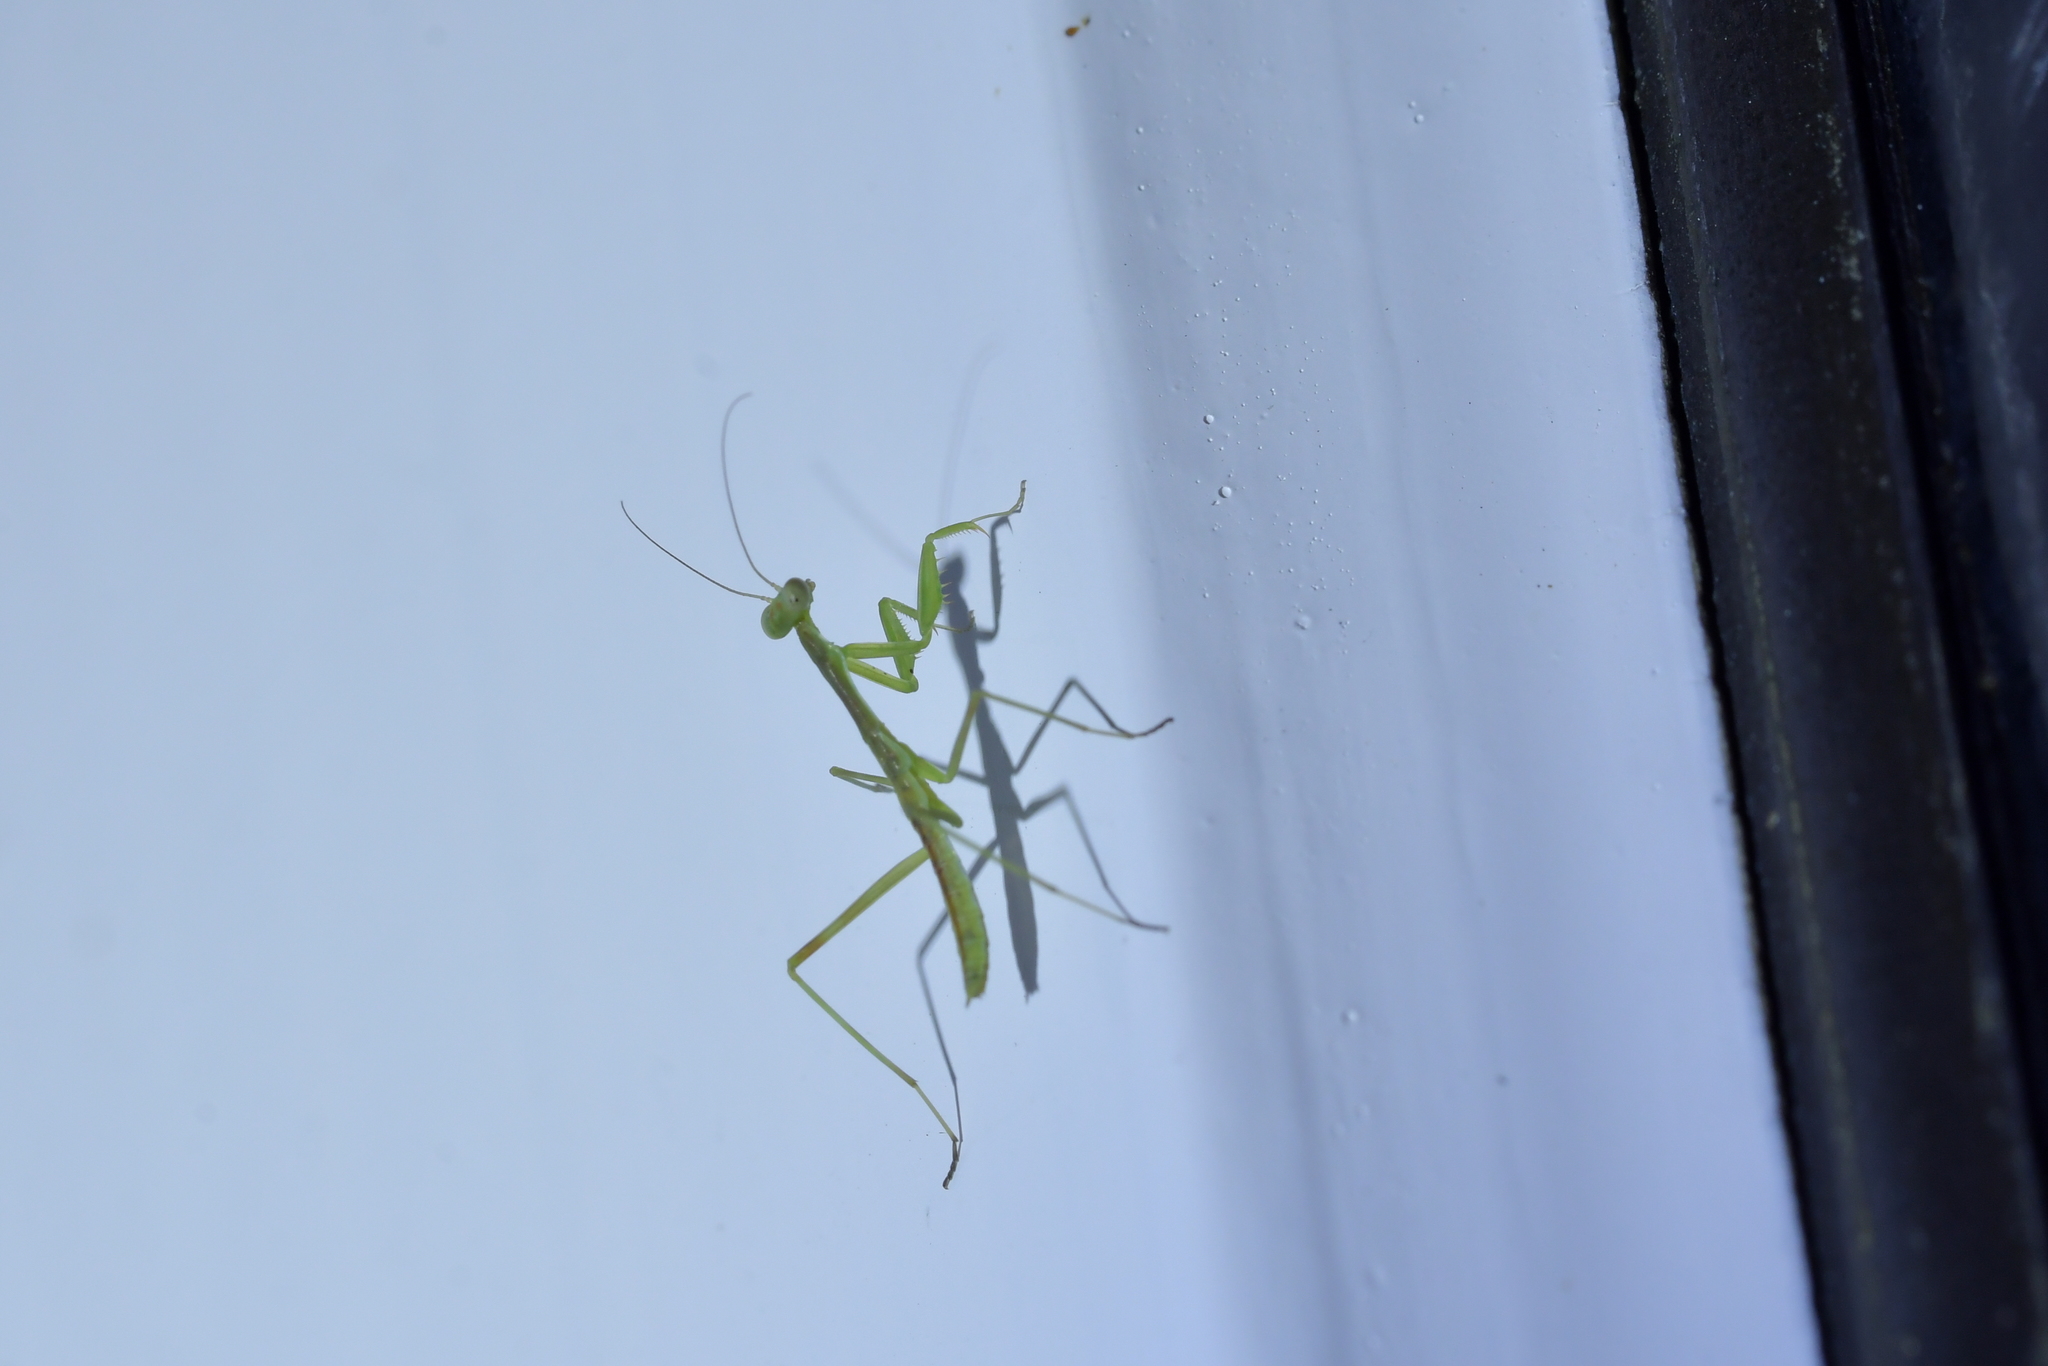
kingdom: Animalia
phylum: Arthropoda
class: Insecta
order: Mantodea
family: Miomantidae
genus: Miomantis
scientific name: Miomantis caffra
